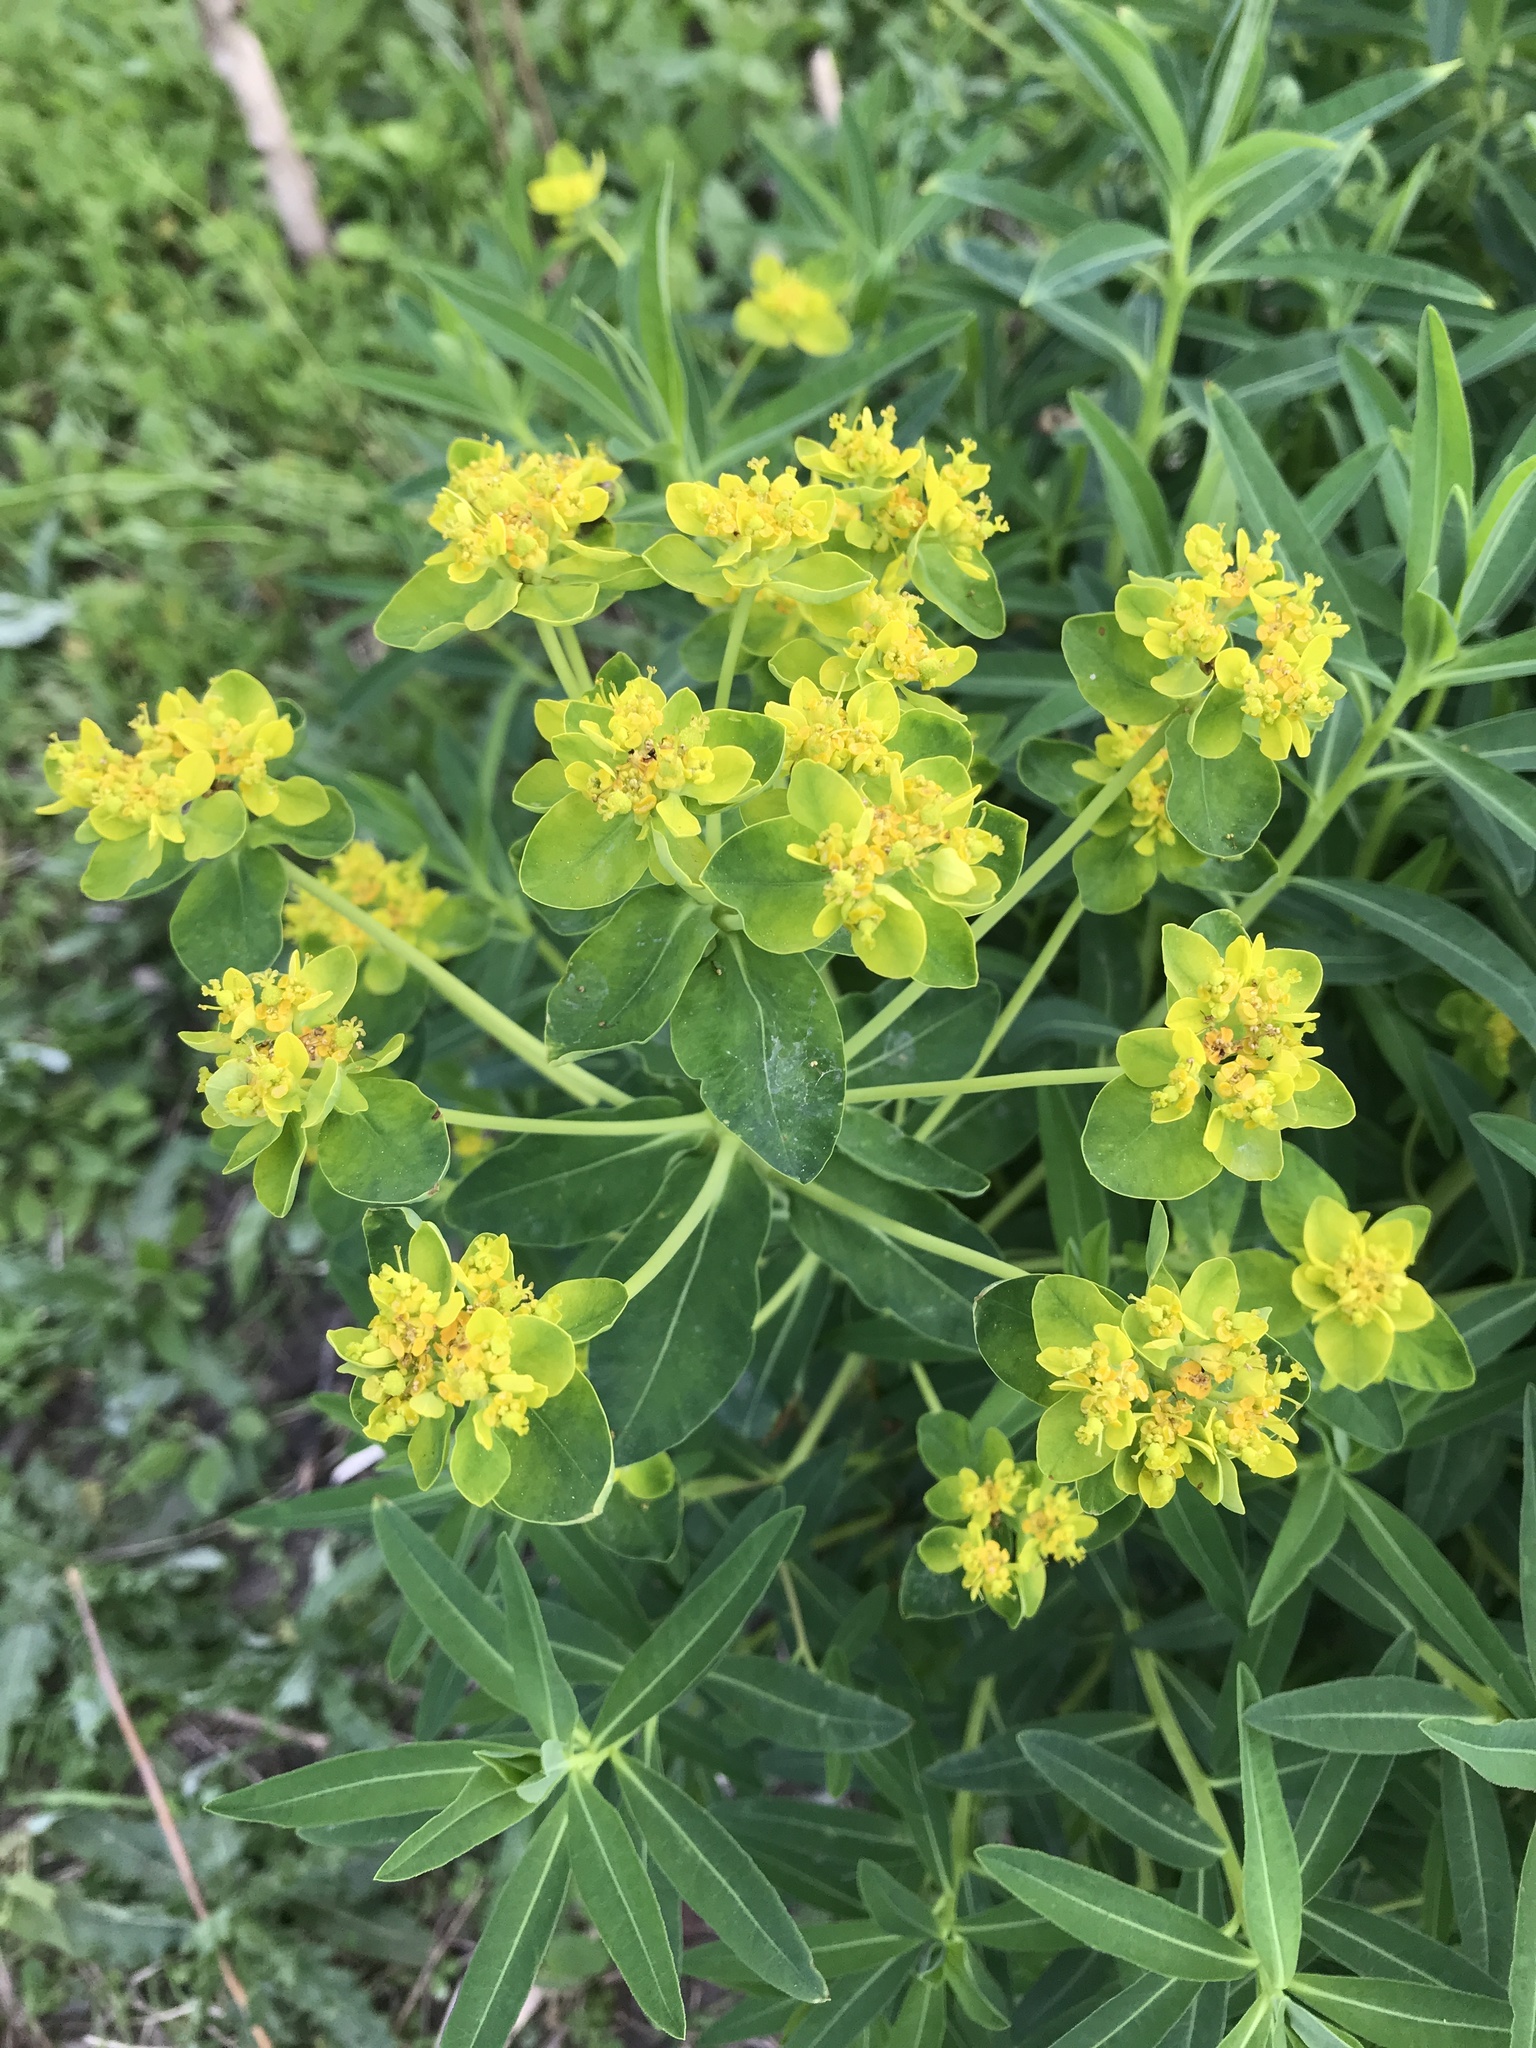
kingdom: Plantae
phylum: Tracheophyta
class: Magnoliopsida
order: Malpighiales
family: Euphorbiaceae
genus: Euphorbia
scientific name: Euphorbia oblongata
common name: Balkan spurge
